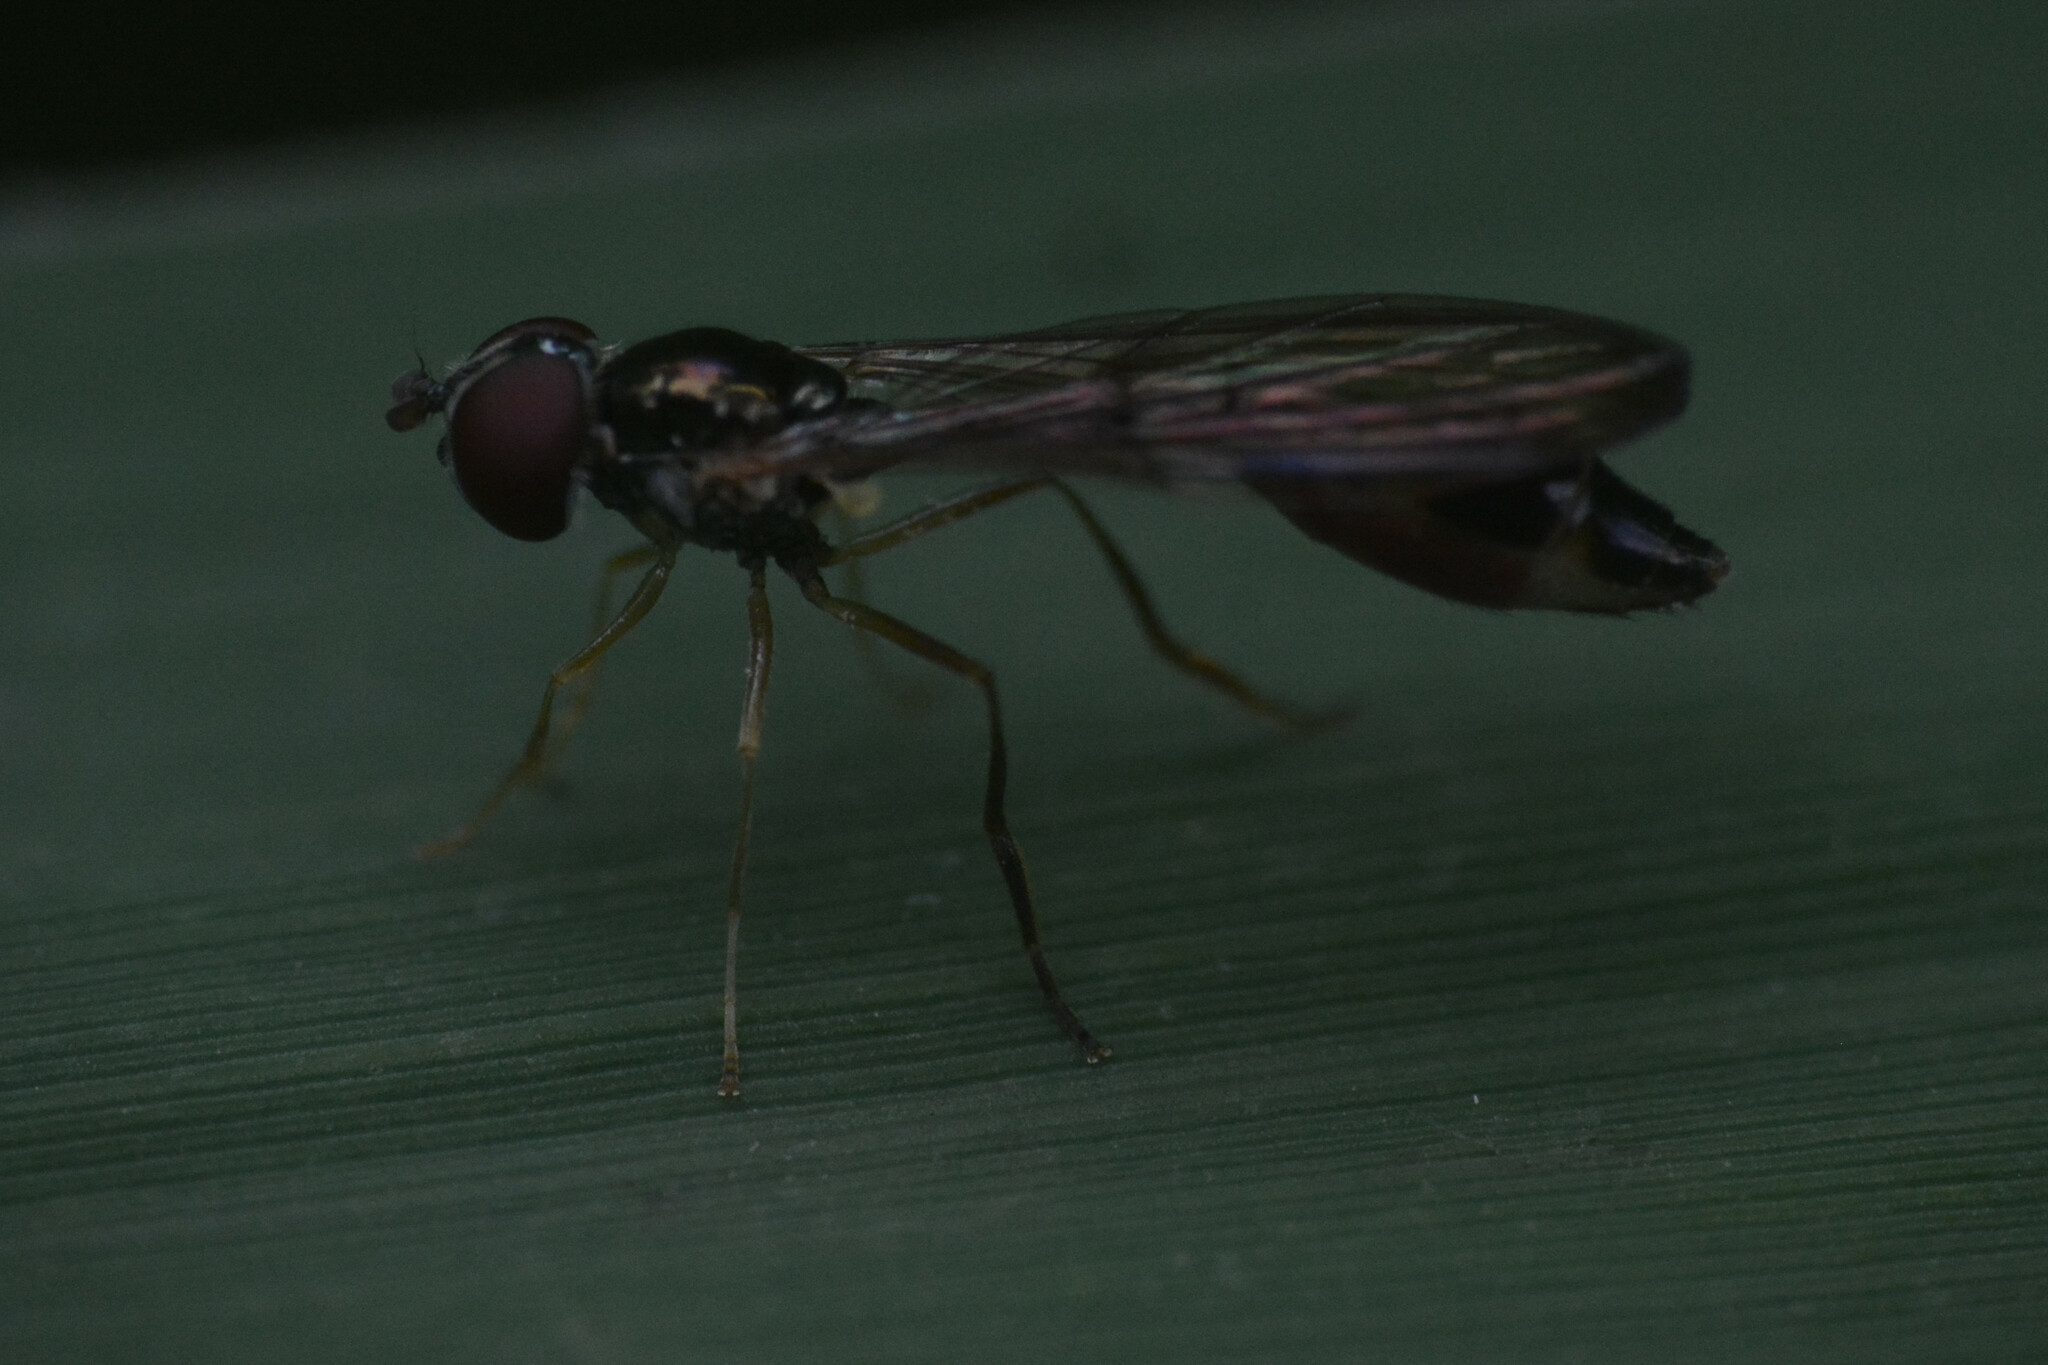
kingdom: Animalia
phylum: Arthropoda
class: Insecta
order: Diptera
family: Syrphidae
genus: Baccha
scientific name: Baccha elongata
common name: Common dainty
